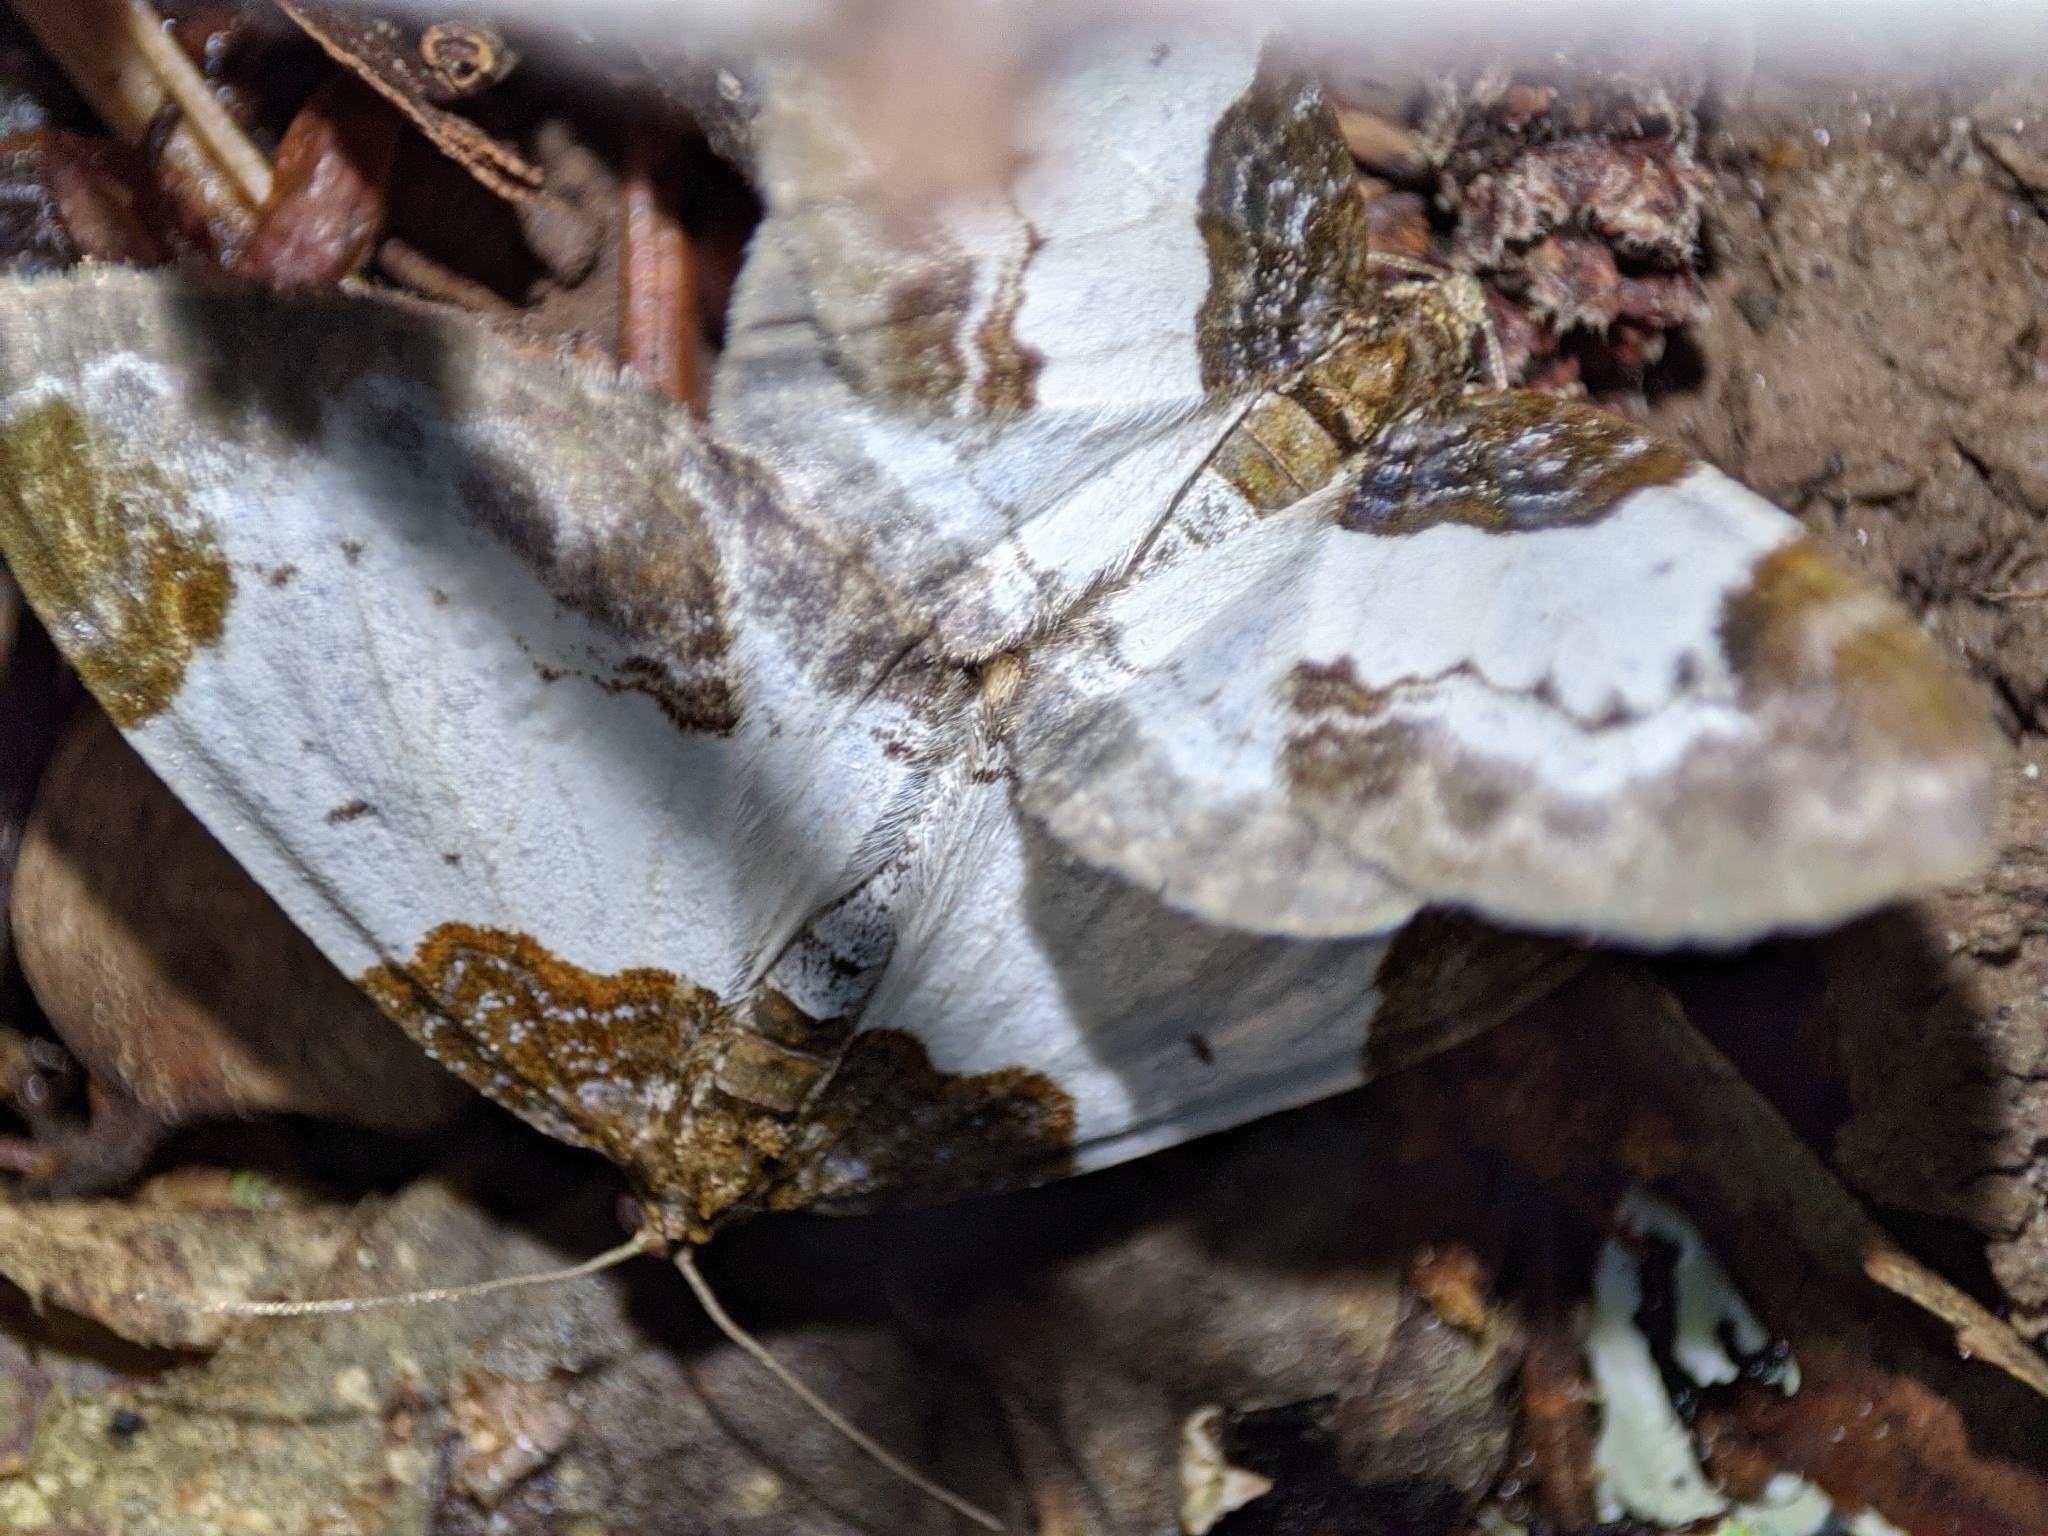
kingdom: Animalia
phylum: Arthropoda
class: Insecta
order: Lepidoptera
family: Geometridae
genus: Mesoleuca
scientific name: Mesoleuca albicillata
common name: Beautiful carpet
